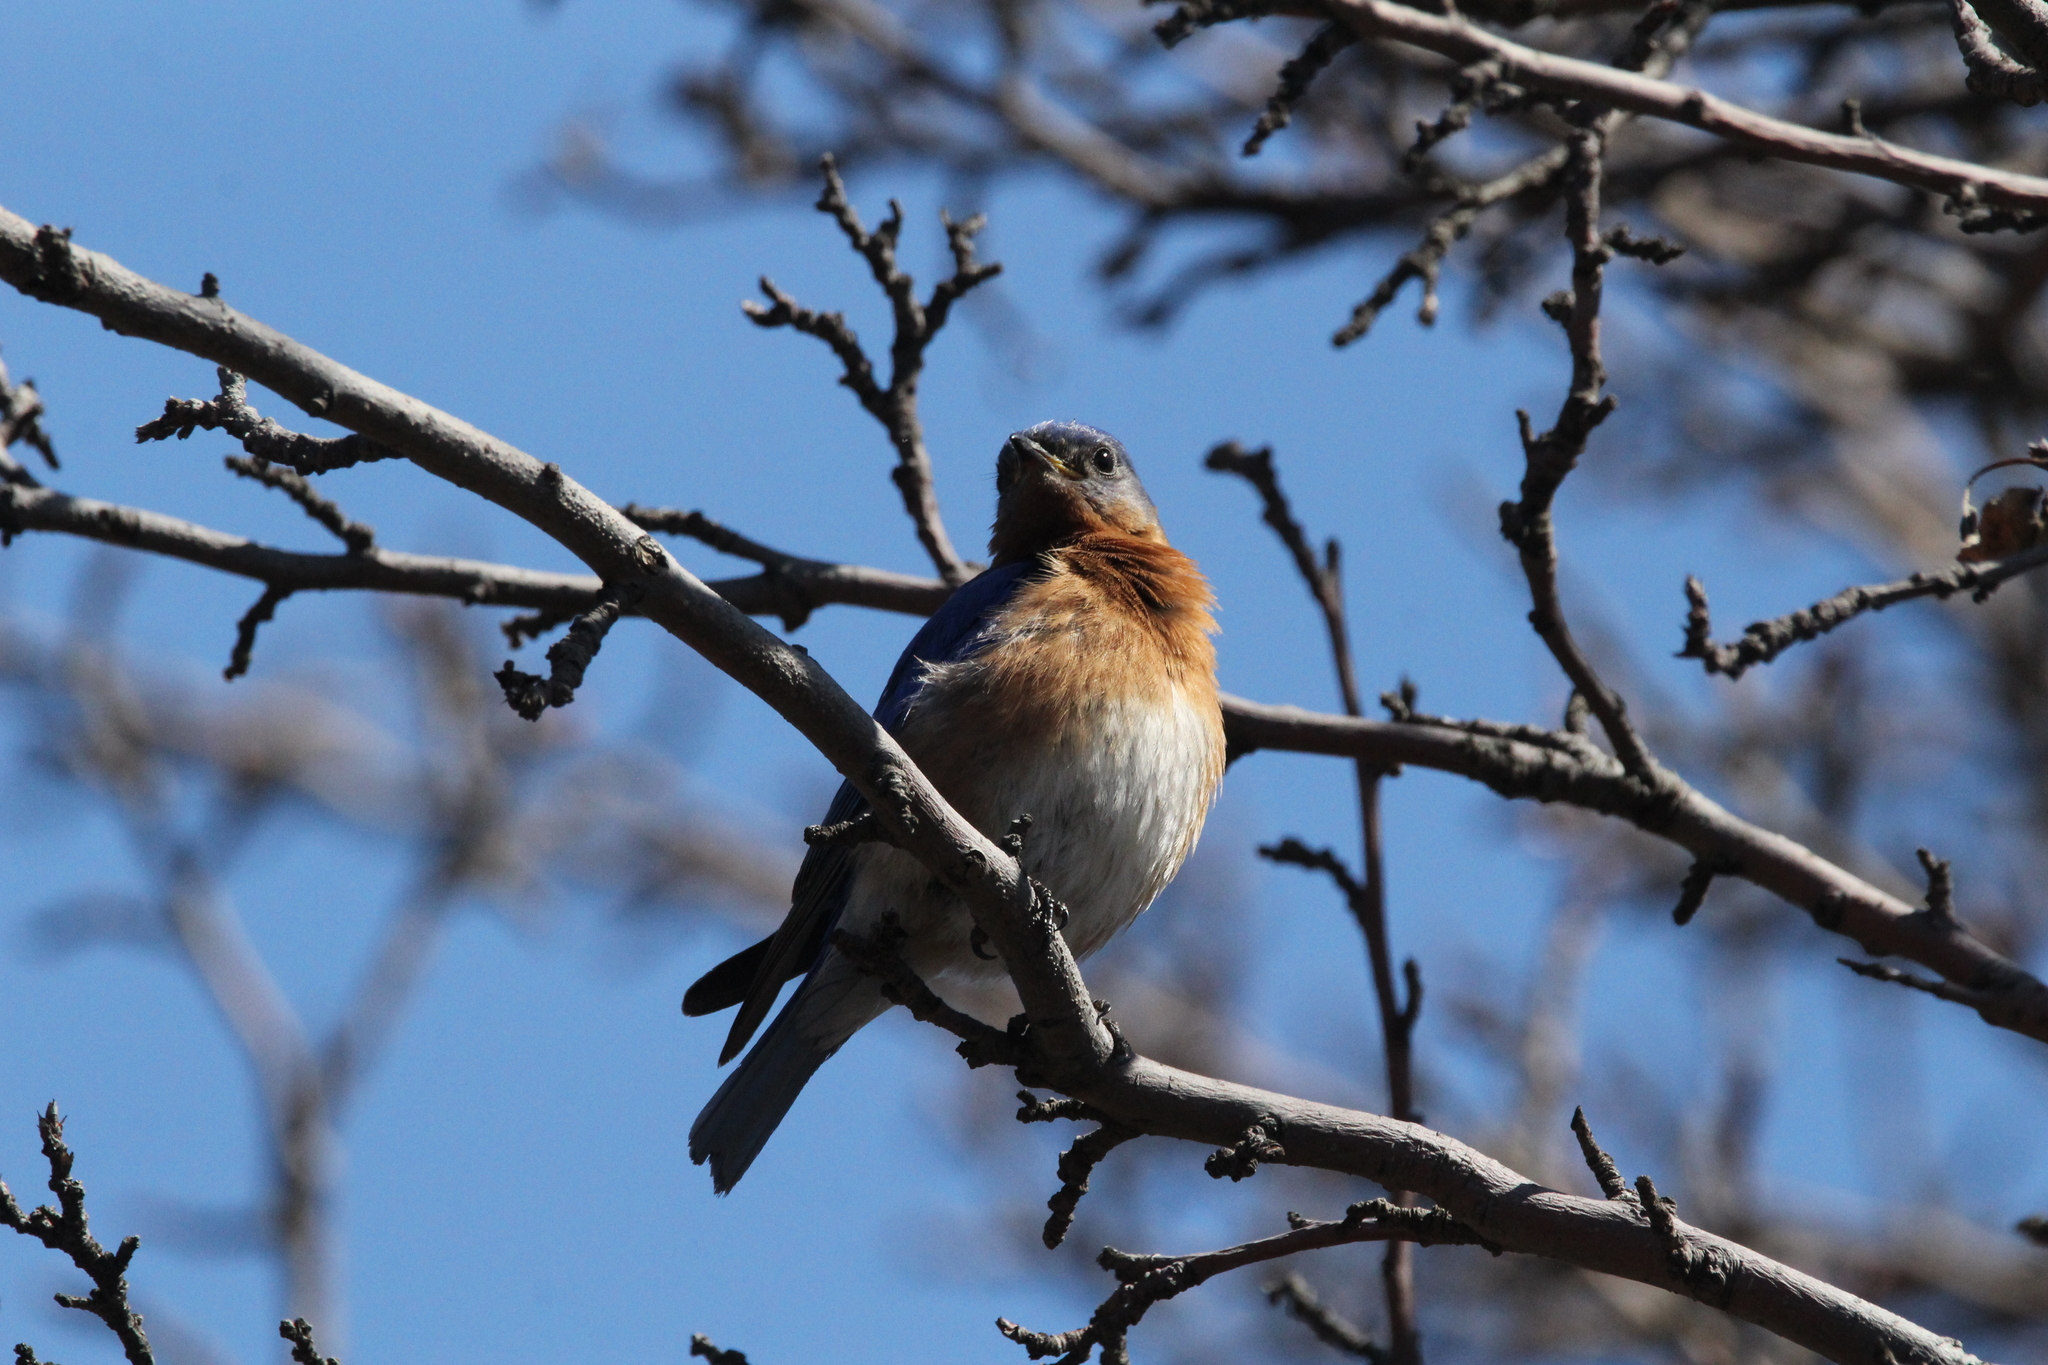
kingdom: Animalia
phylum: Chordata
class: Aves
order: Passeriformes
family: Turdidae
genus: Sialia
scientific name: Sialia sialis
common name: Eastern bluebird
